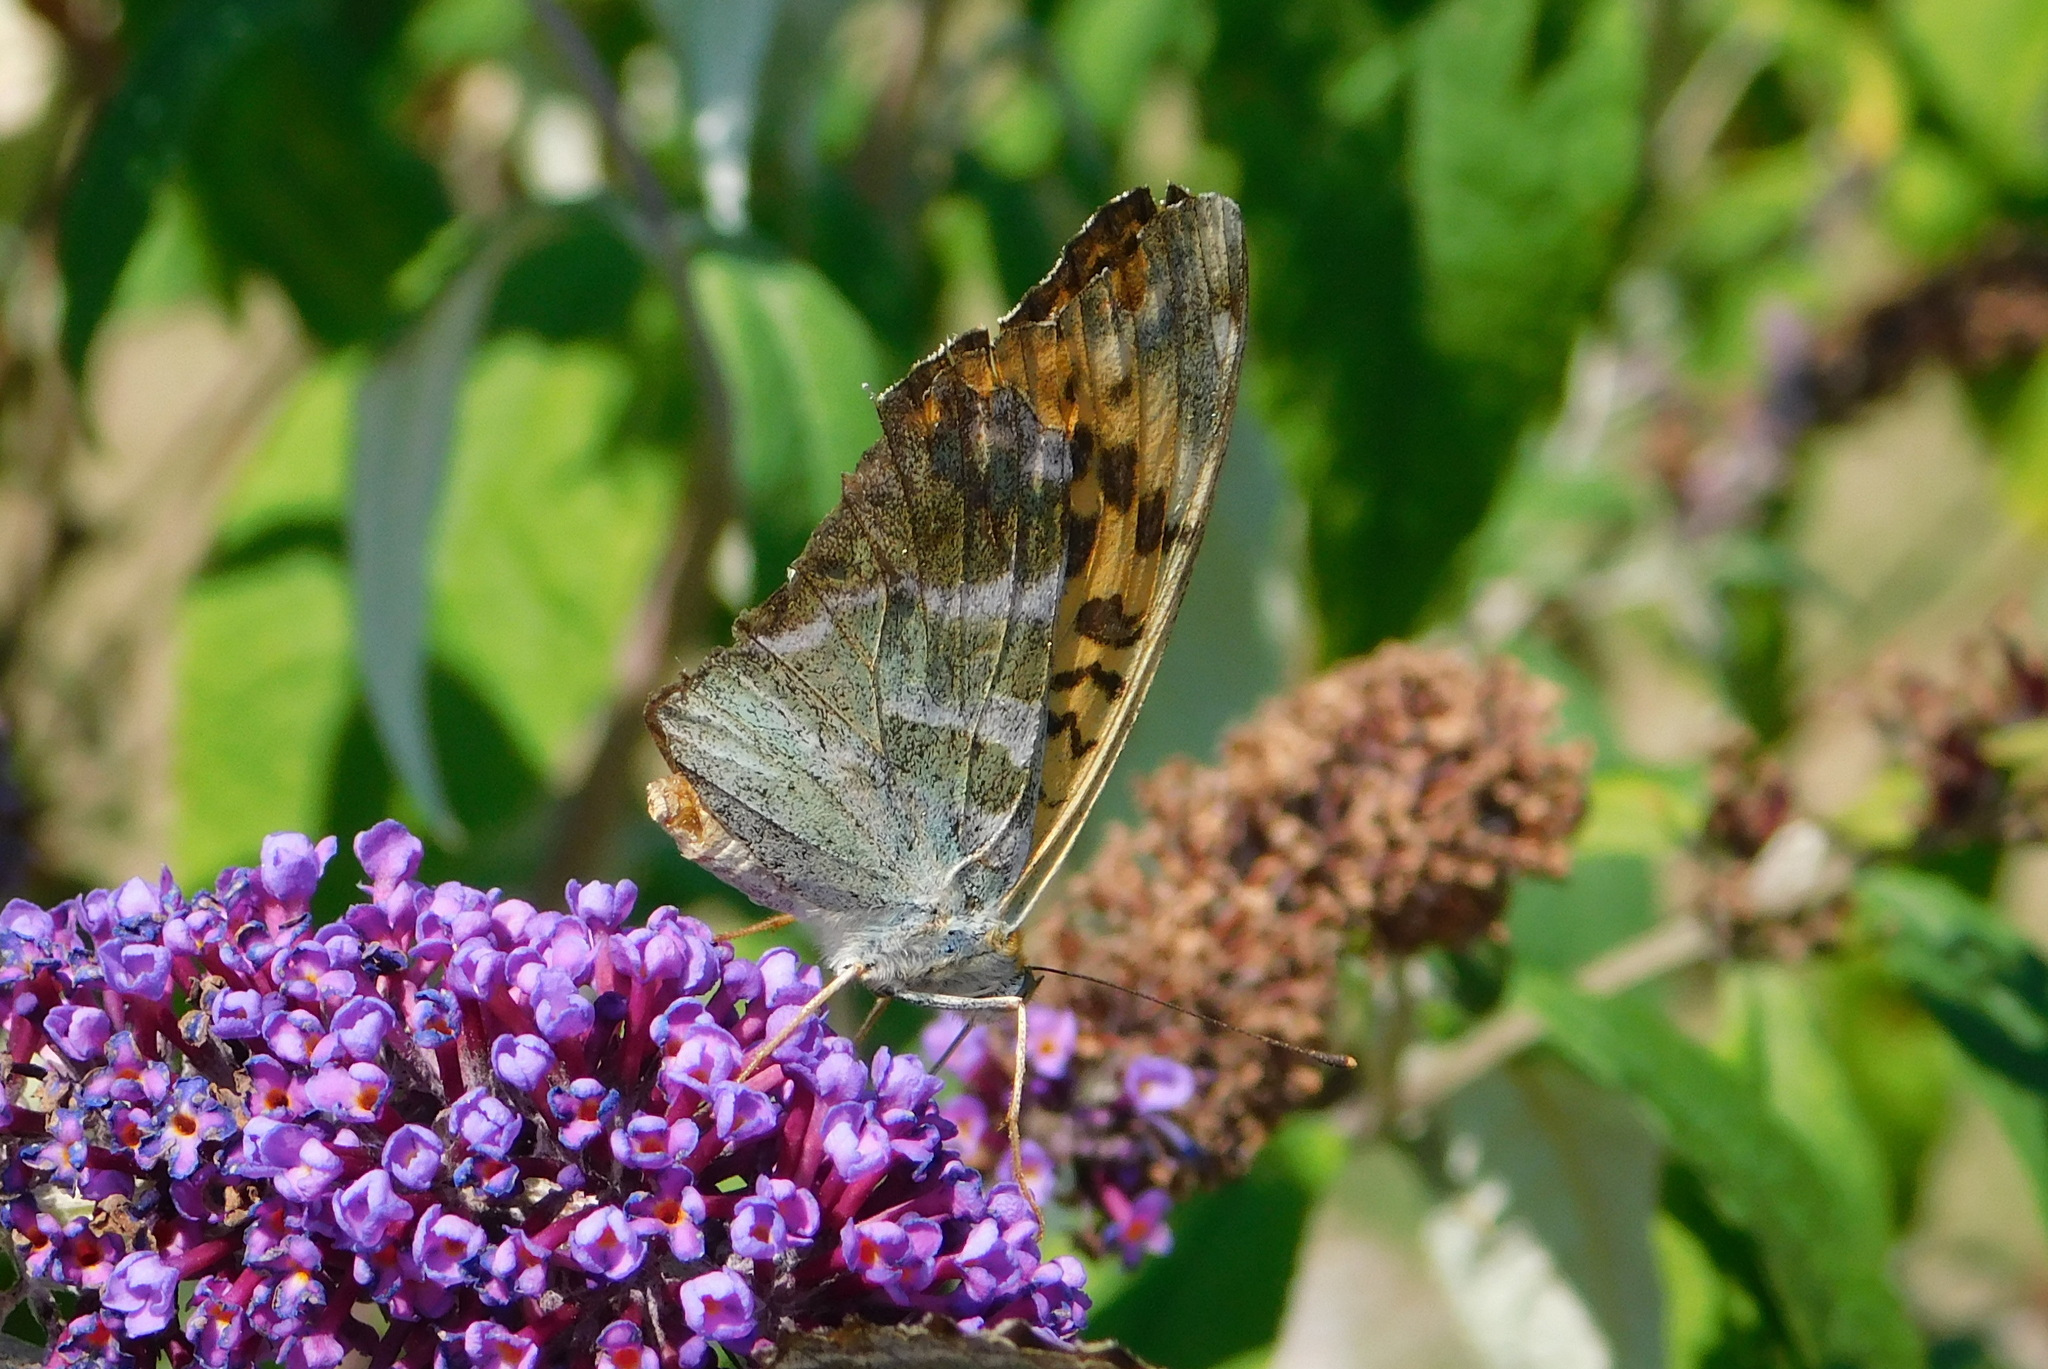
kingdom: Animalia
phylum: Arthropoda
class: Insecta
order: Lepidoptera
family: Nymphalidae
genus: Argynnis
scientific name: Argynnis paphia
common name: Silver-washed fritillary
